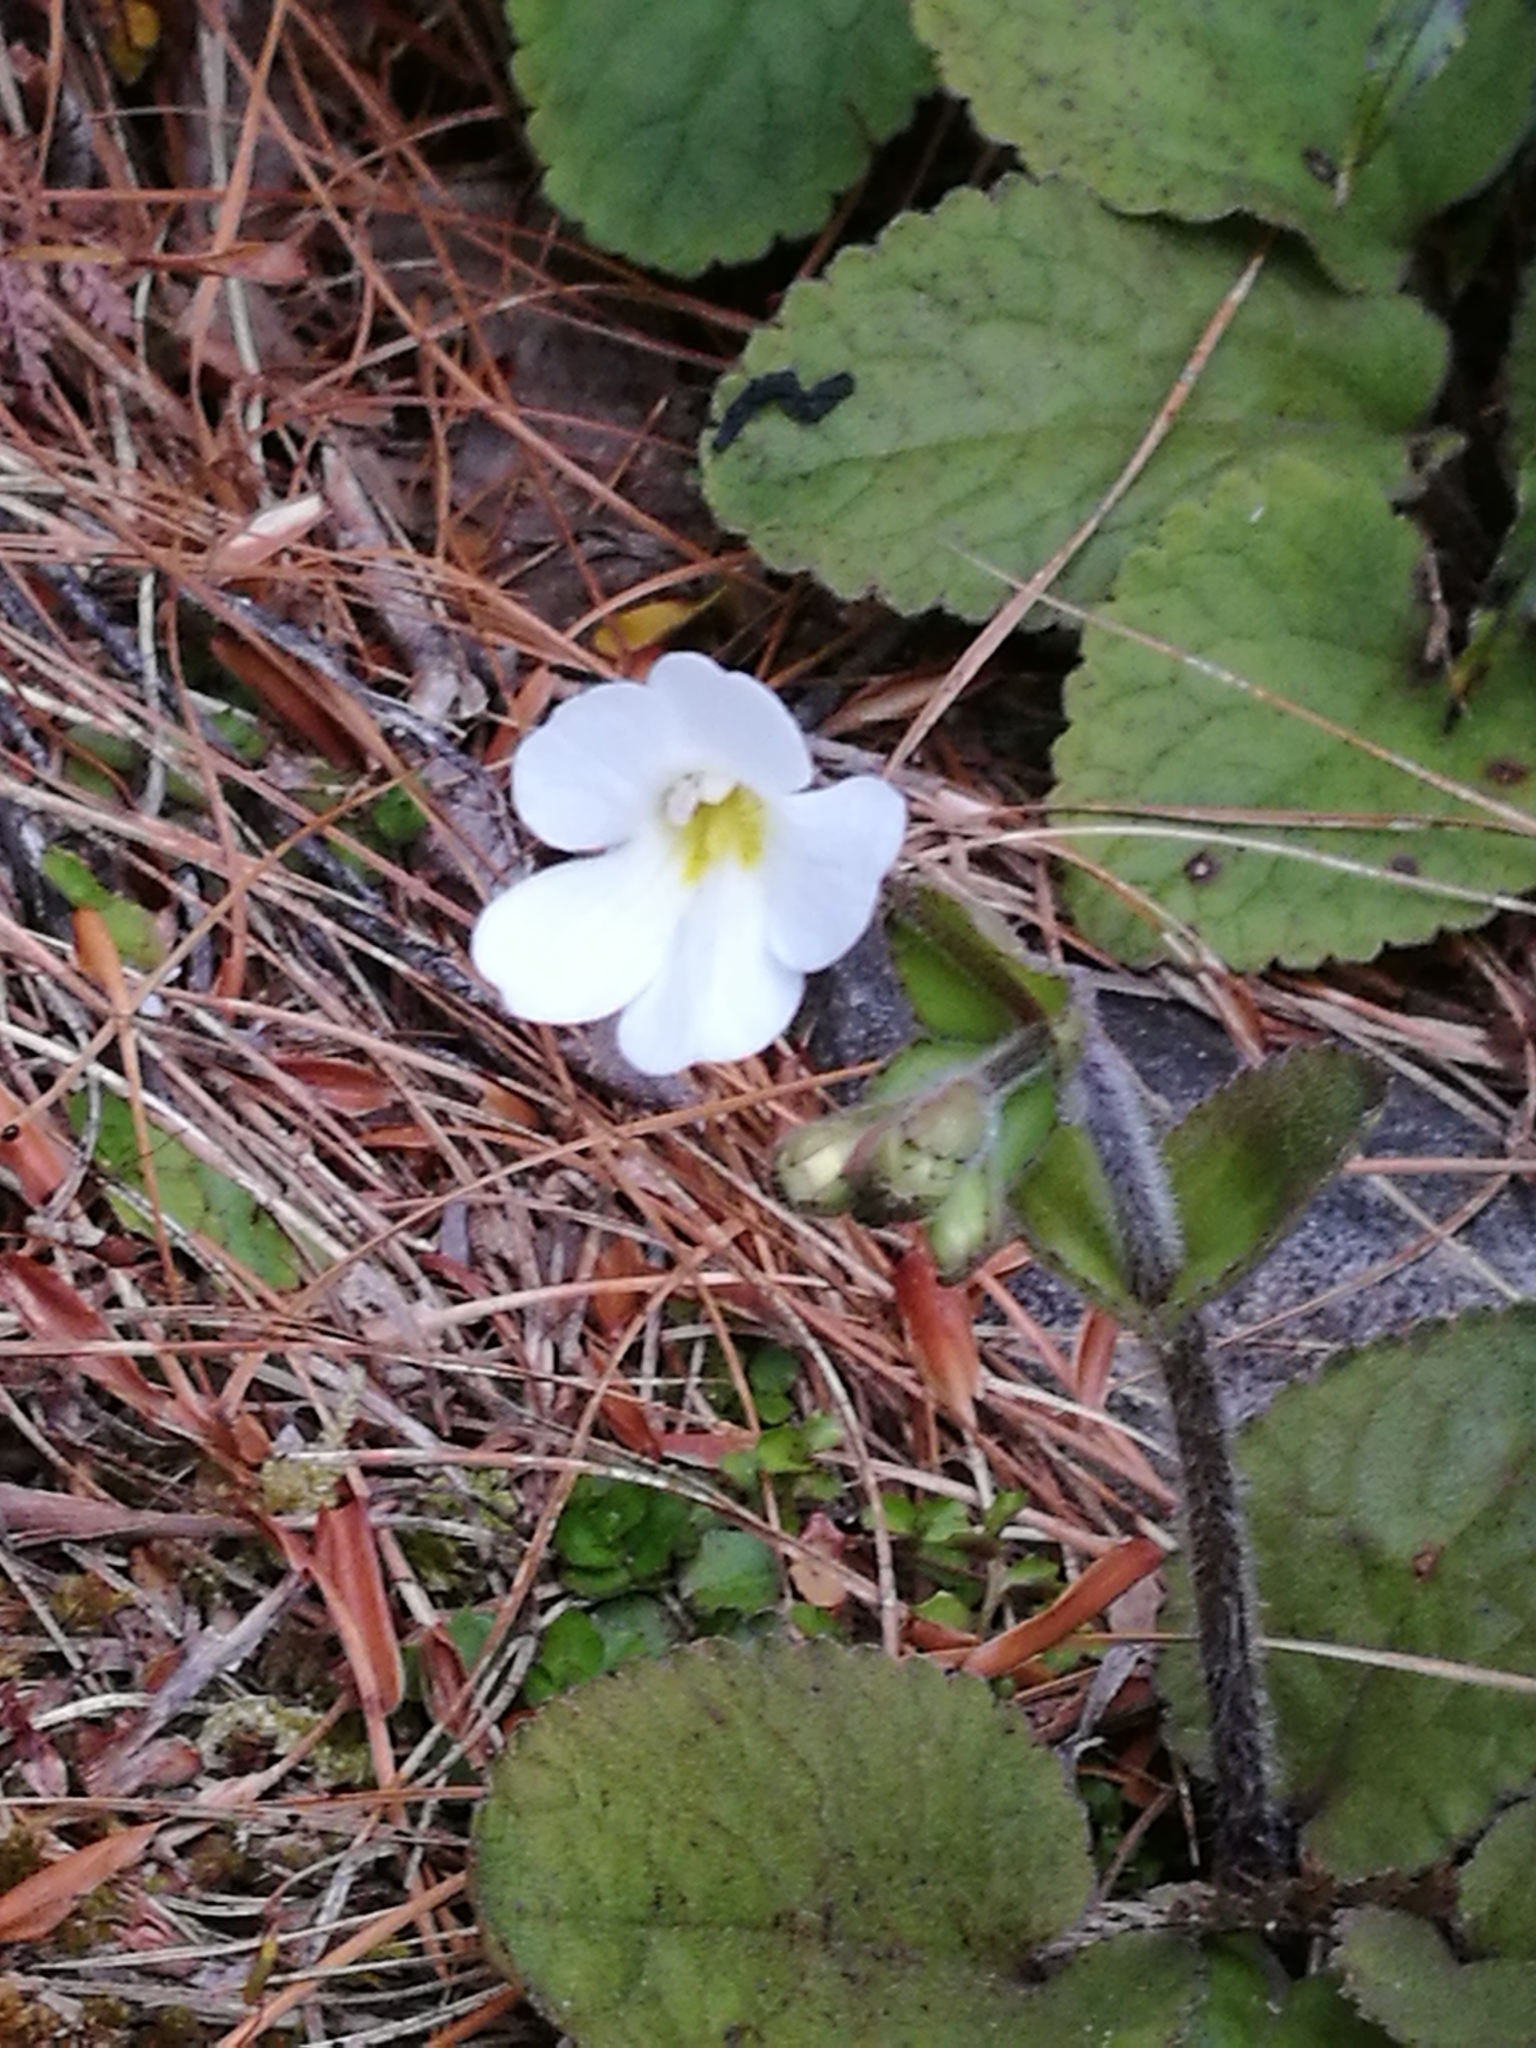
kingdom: Plantae
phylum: Tracheophyta
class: Magnoliopsida
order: Lamiales
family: Plantaginaceae
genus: Ourisia
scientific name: Ourisia macrophylla
